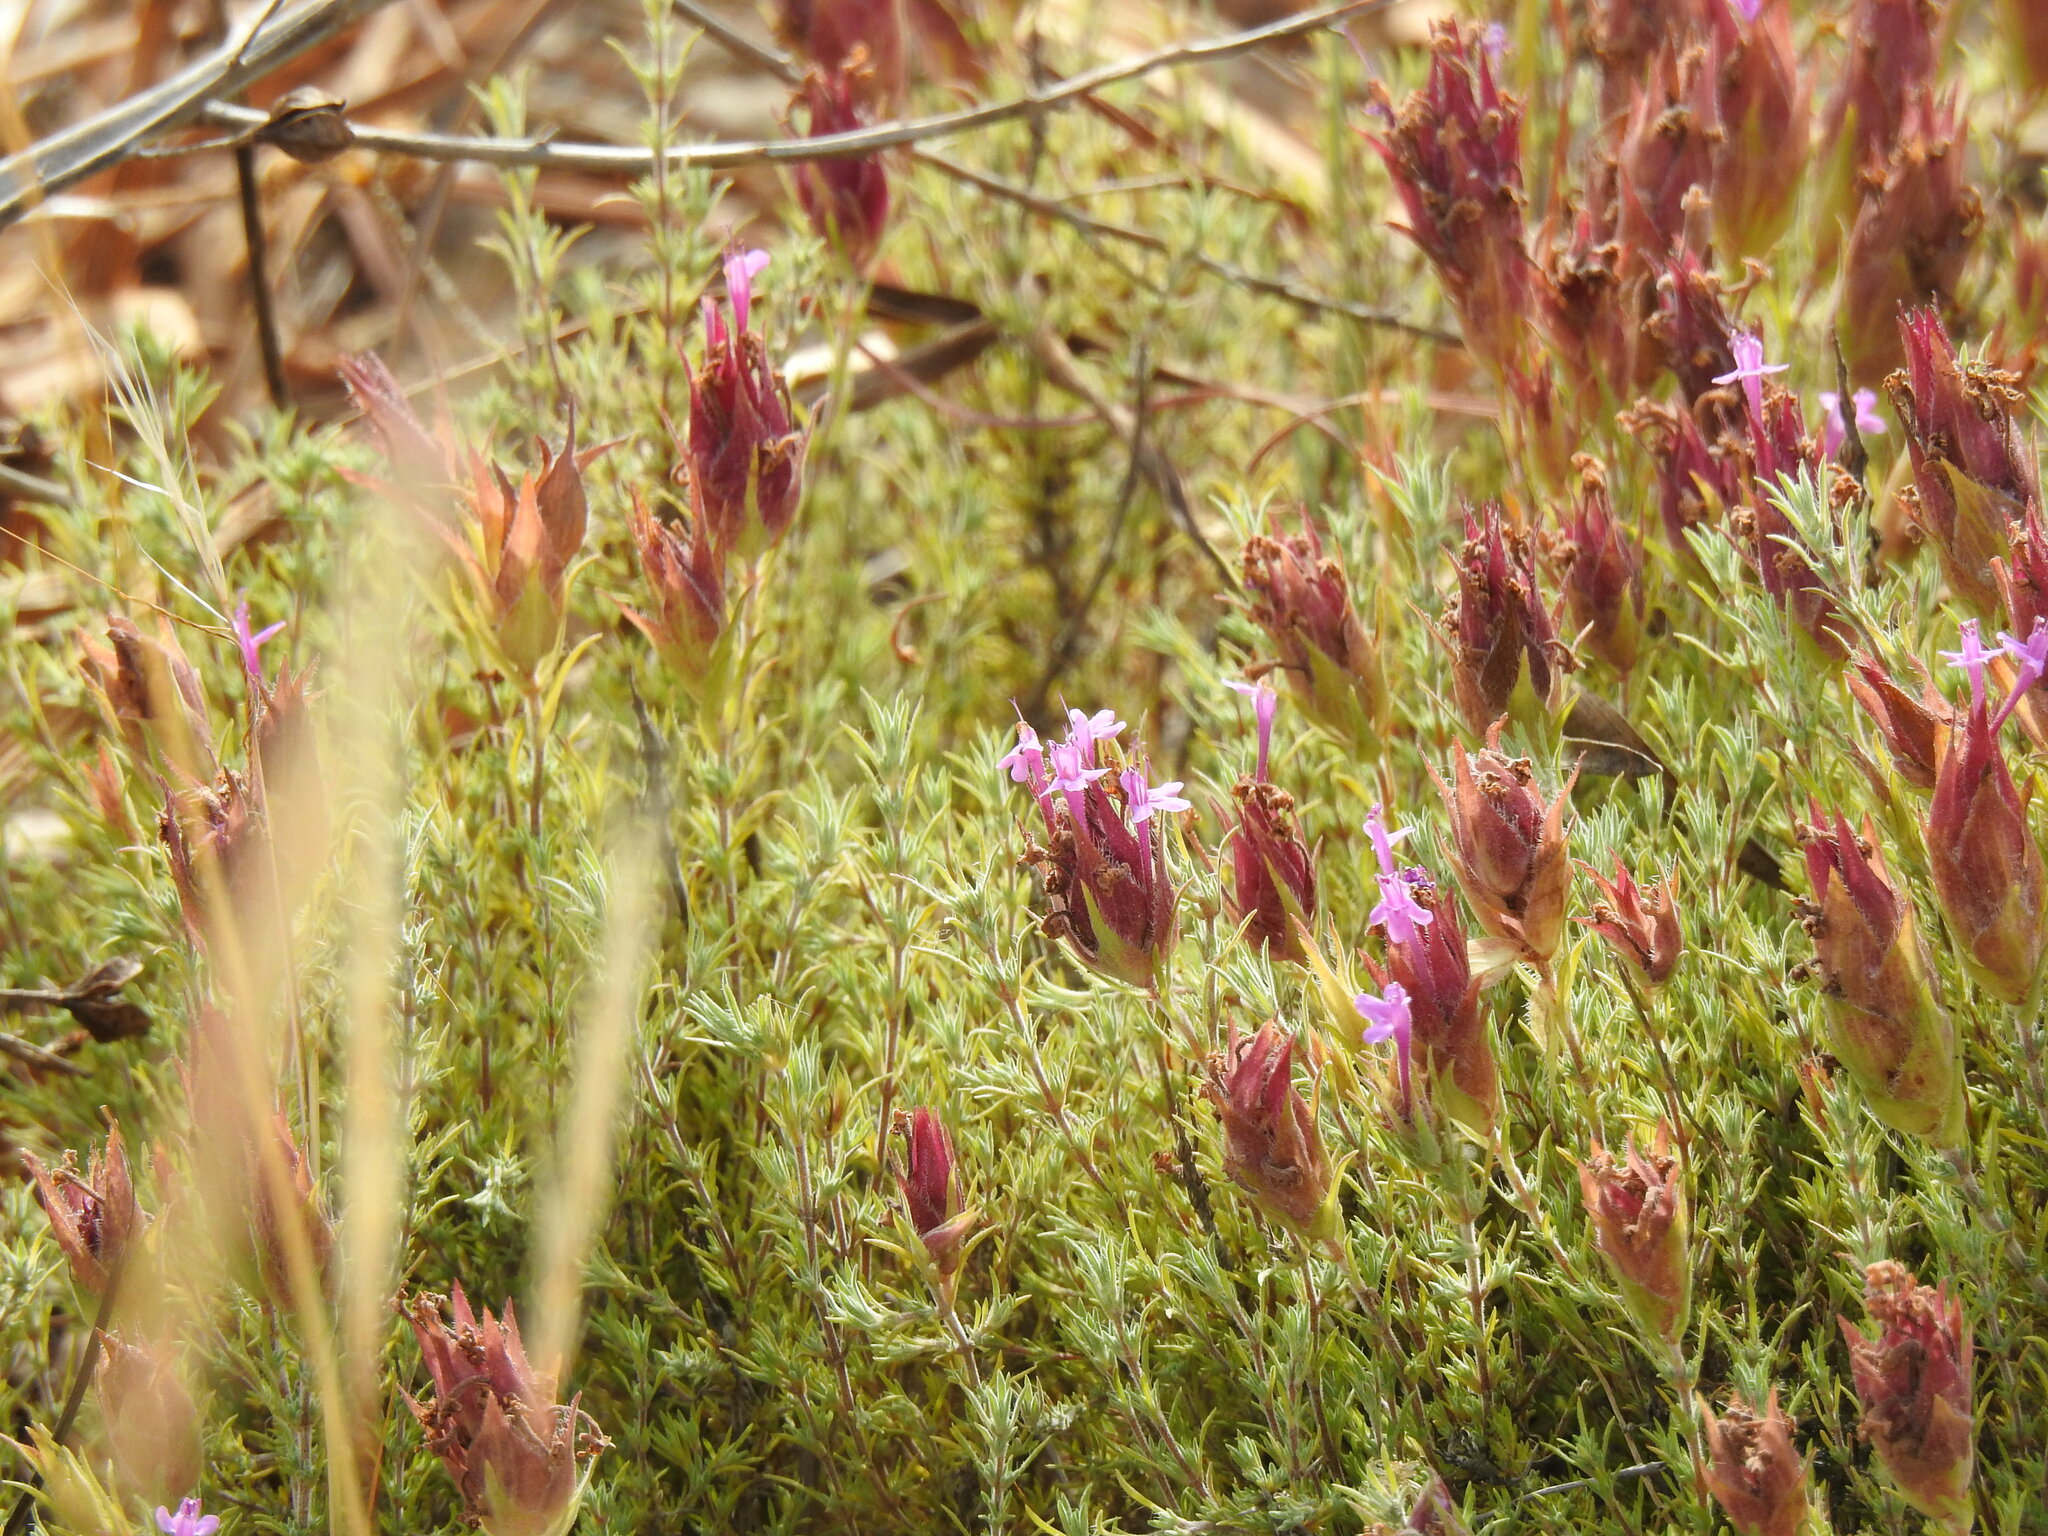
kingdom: Plantae
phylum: Tracheophyta
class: Magnoliopsida
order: Lamiales
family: Lamiaceae
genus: Thymus
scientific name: Thymus lotocephalus
